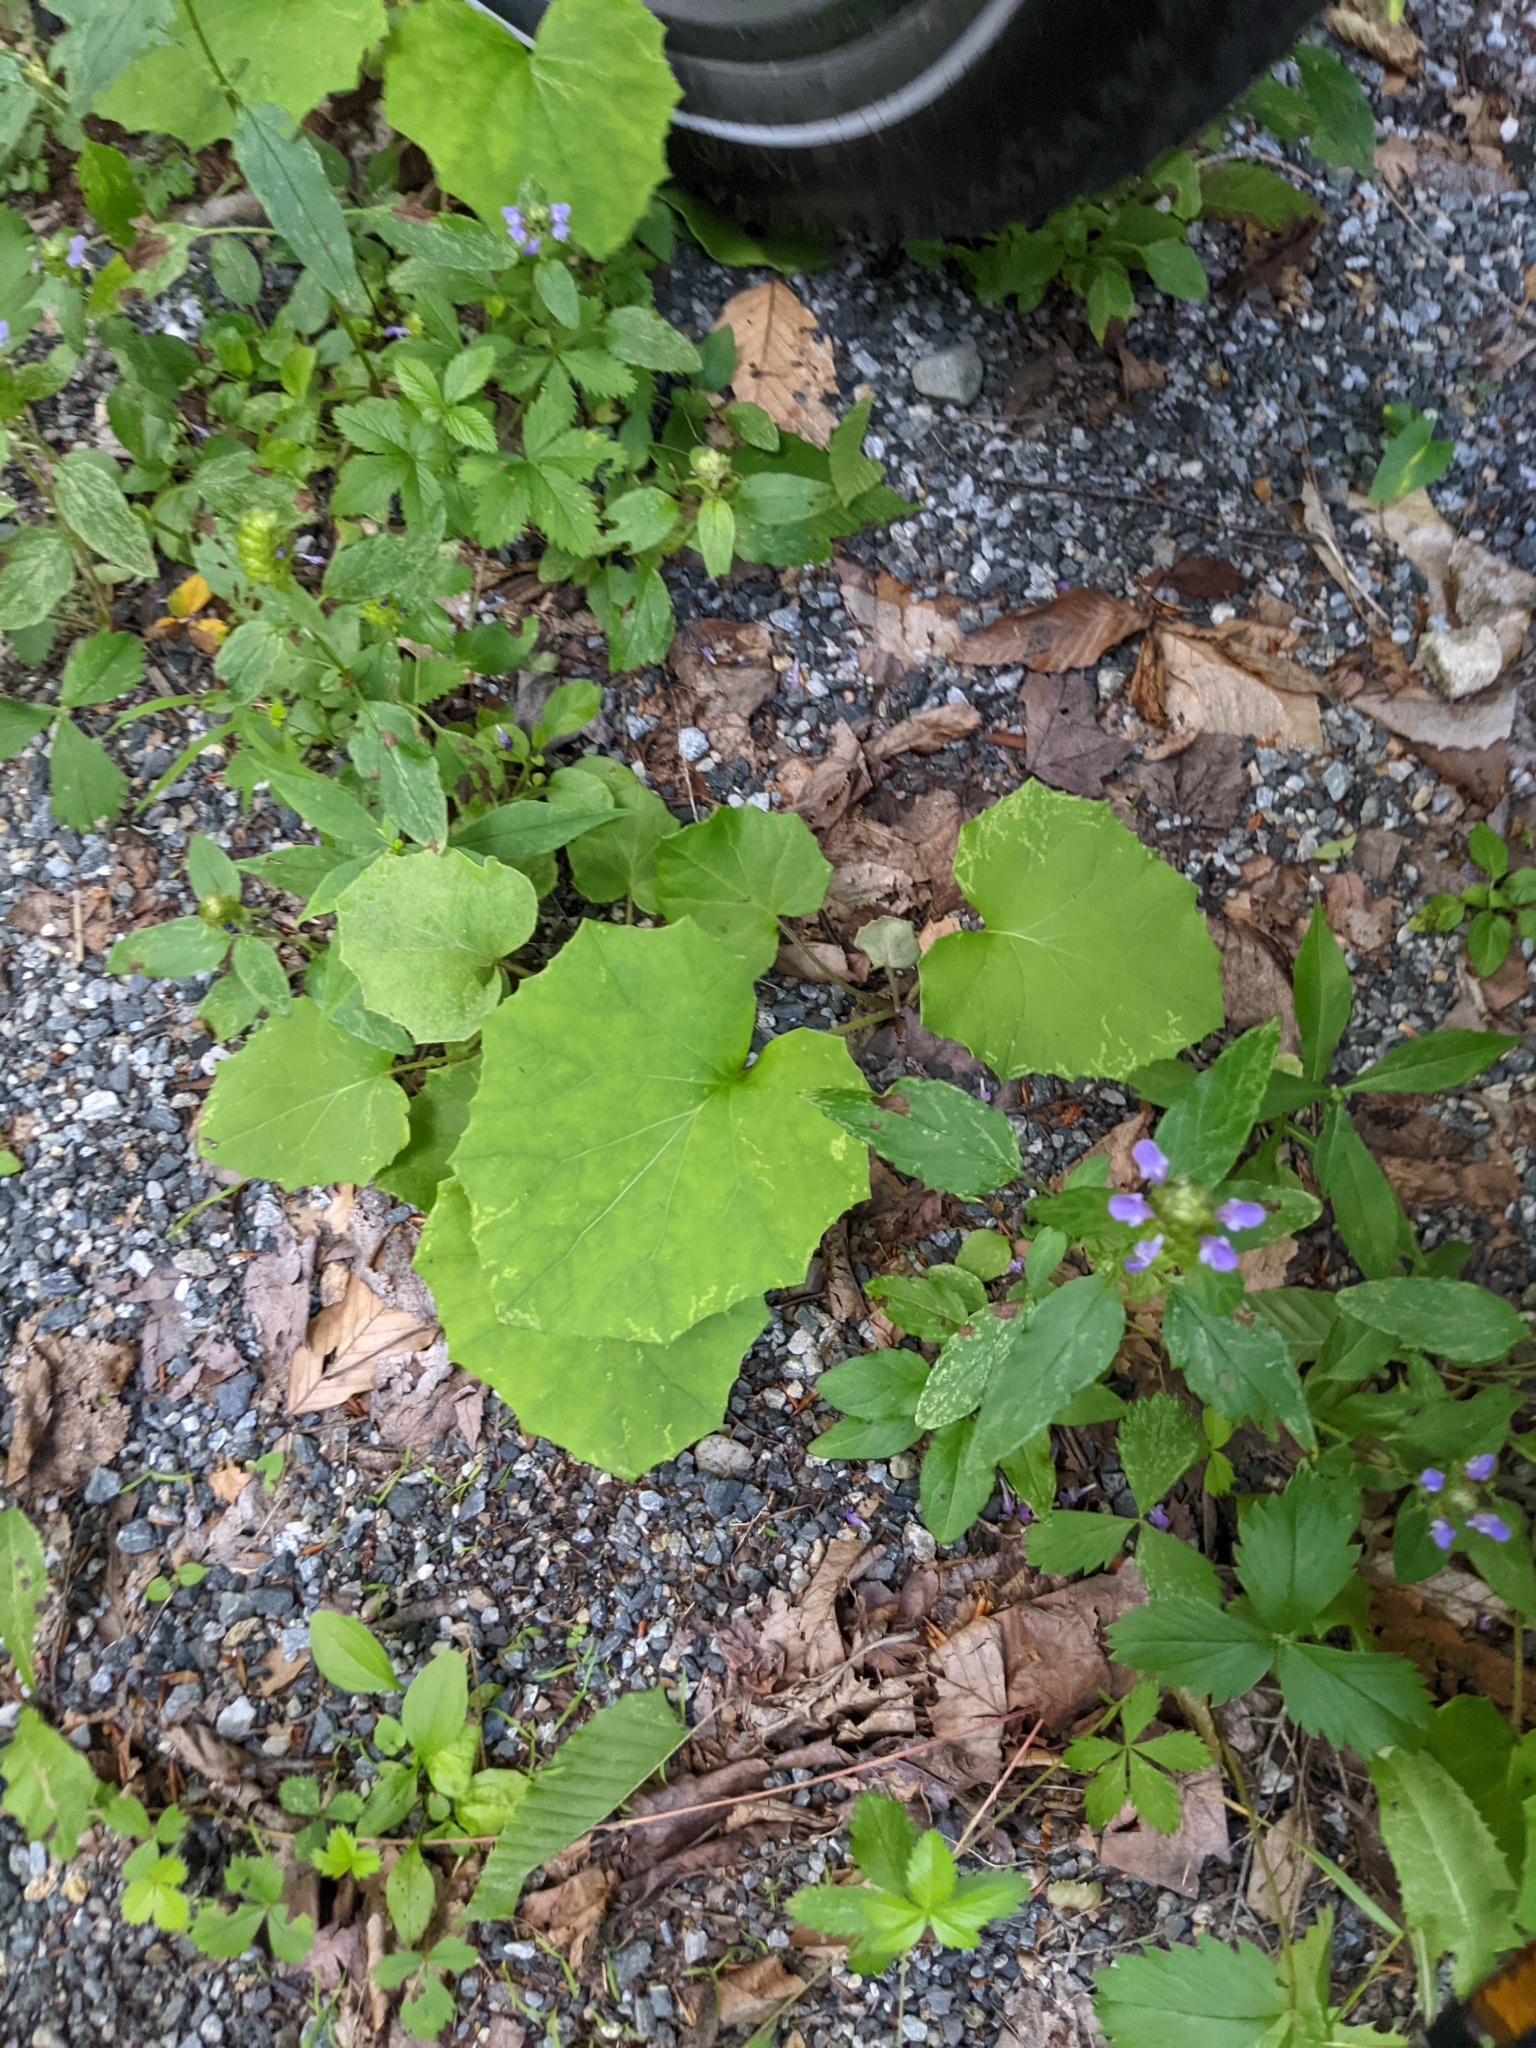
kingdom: Plantae
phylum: Tracheophyta
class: Magnoliopsida
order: Asterales
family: Asteraceae
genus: Tussilago
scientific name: Tussilago farfara
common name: Coltsfoot
